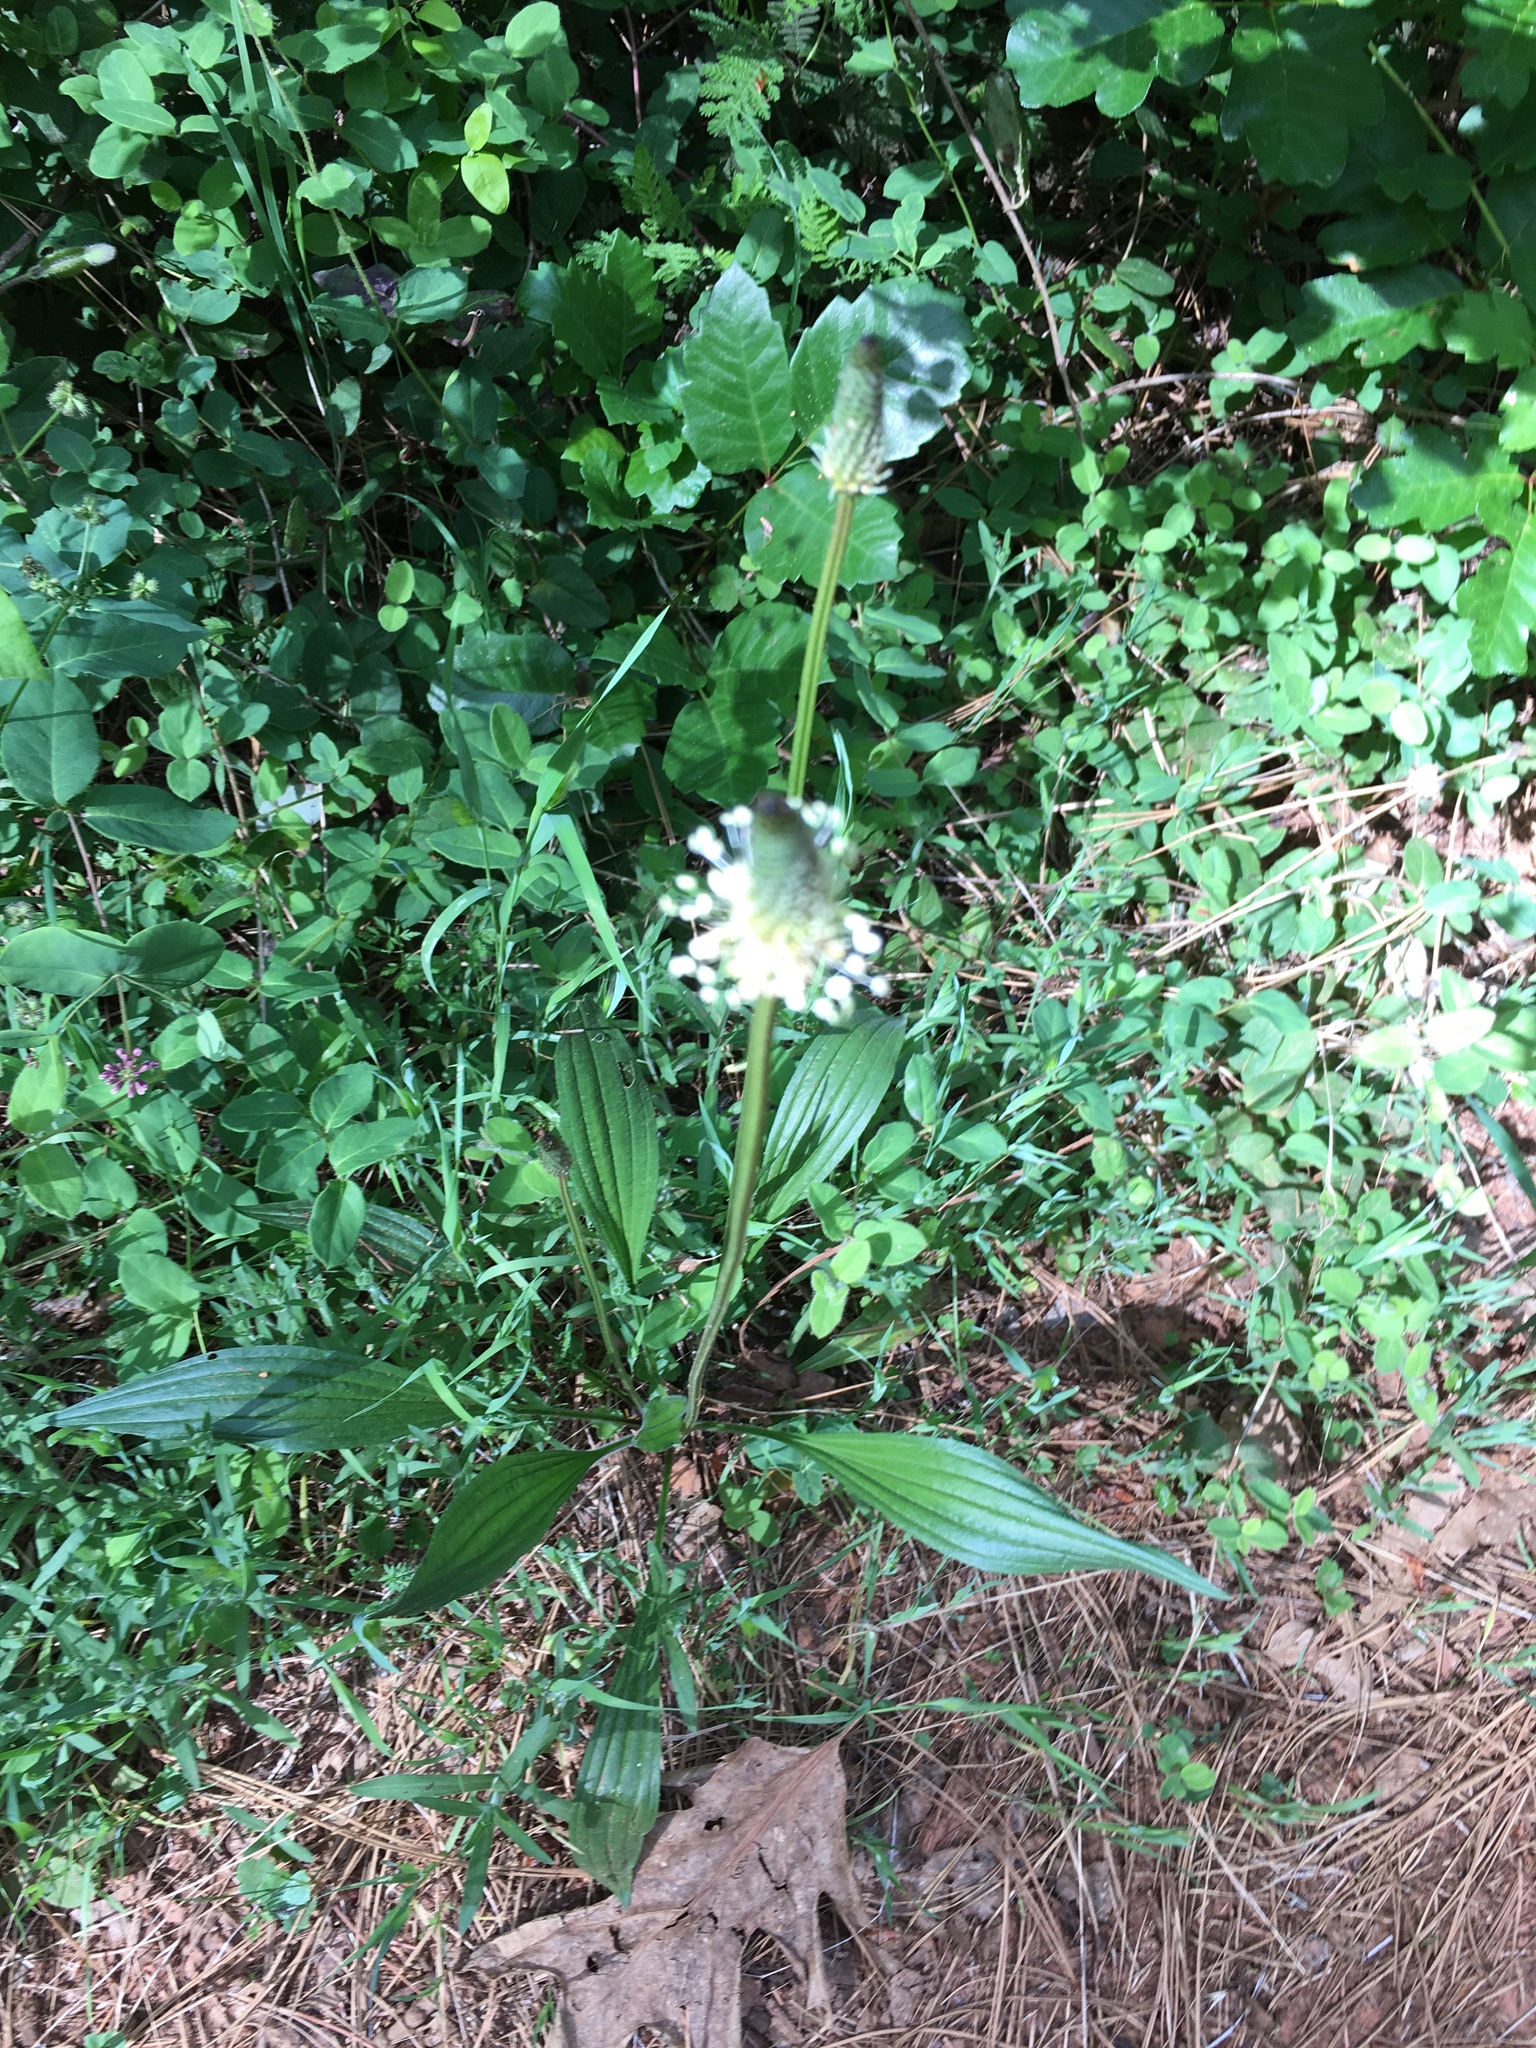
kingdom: Plantae
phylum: Tracheophyta
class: Magnoliopsida
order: Lamiales
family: Plantaginaceae
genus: Plantago
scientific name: Plantago lanceolata
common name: Ribwort plantain
